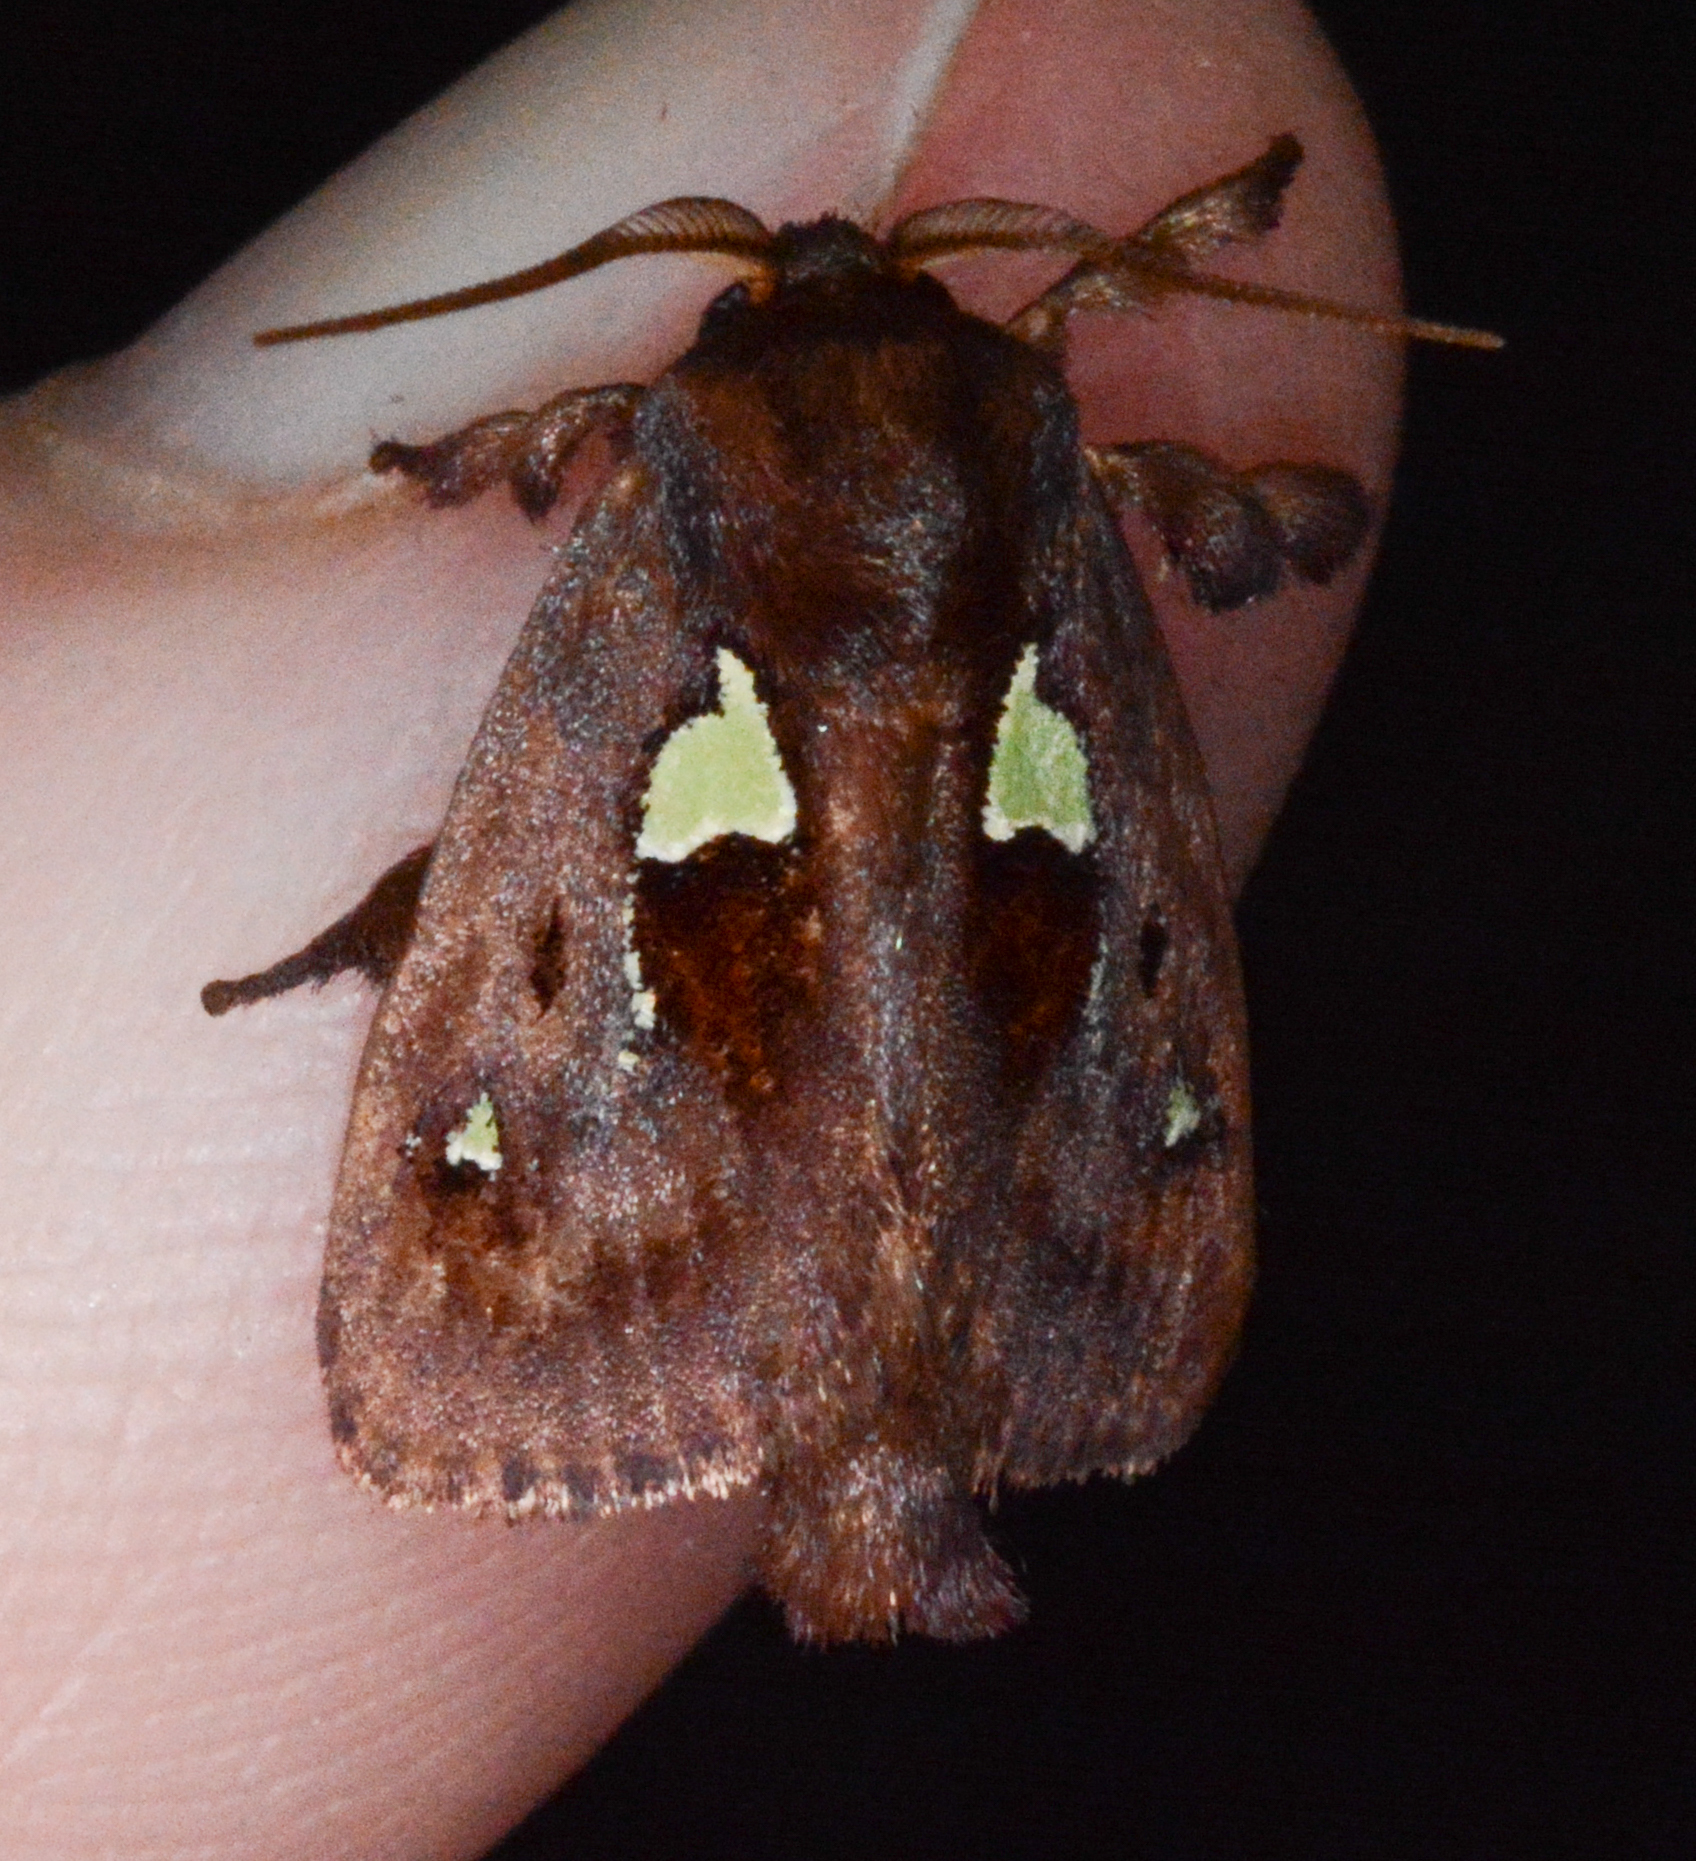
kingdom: Animalia
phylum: Arthropoda
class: Insecta
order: Lepidoptera
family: Limacodidae
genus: Euclea
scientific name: Euclea delphinii
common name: Spiny oak-slug moth
